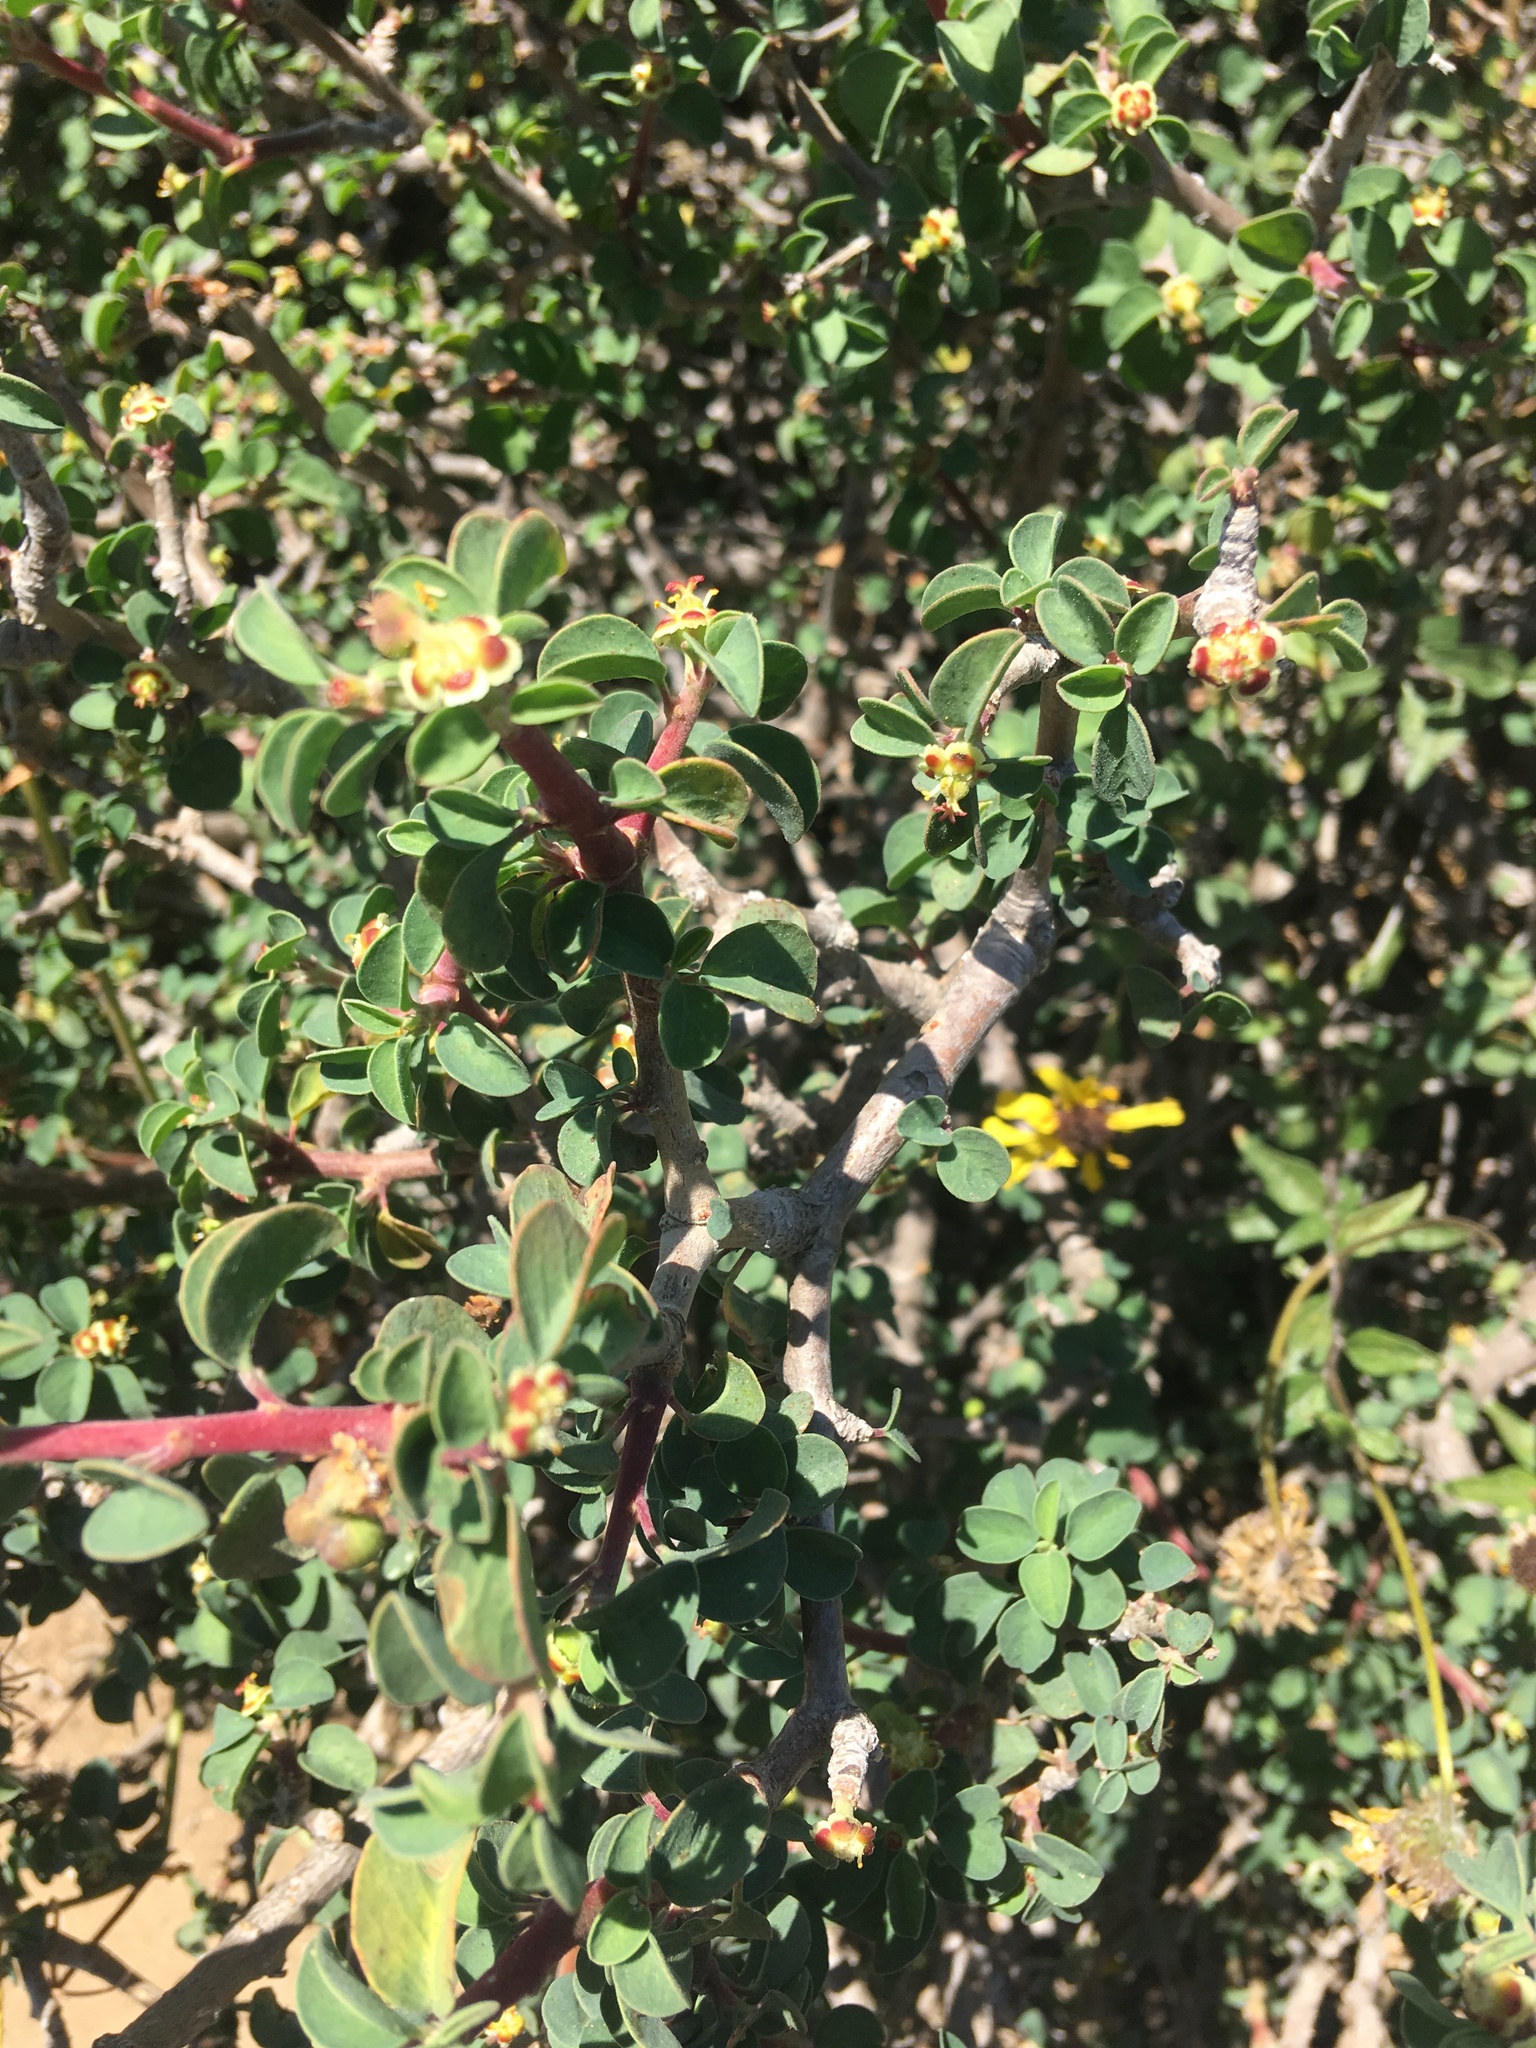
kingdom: Plantae
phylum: Tracheophyta
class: Magnoliopsida
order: Malpighiales
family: Euphorbiaceae
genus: Euphorbia
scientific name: Euphorbia misera
